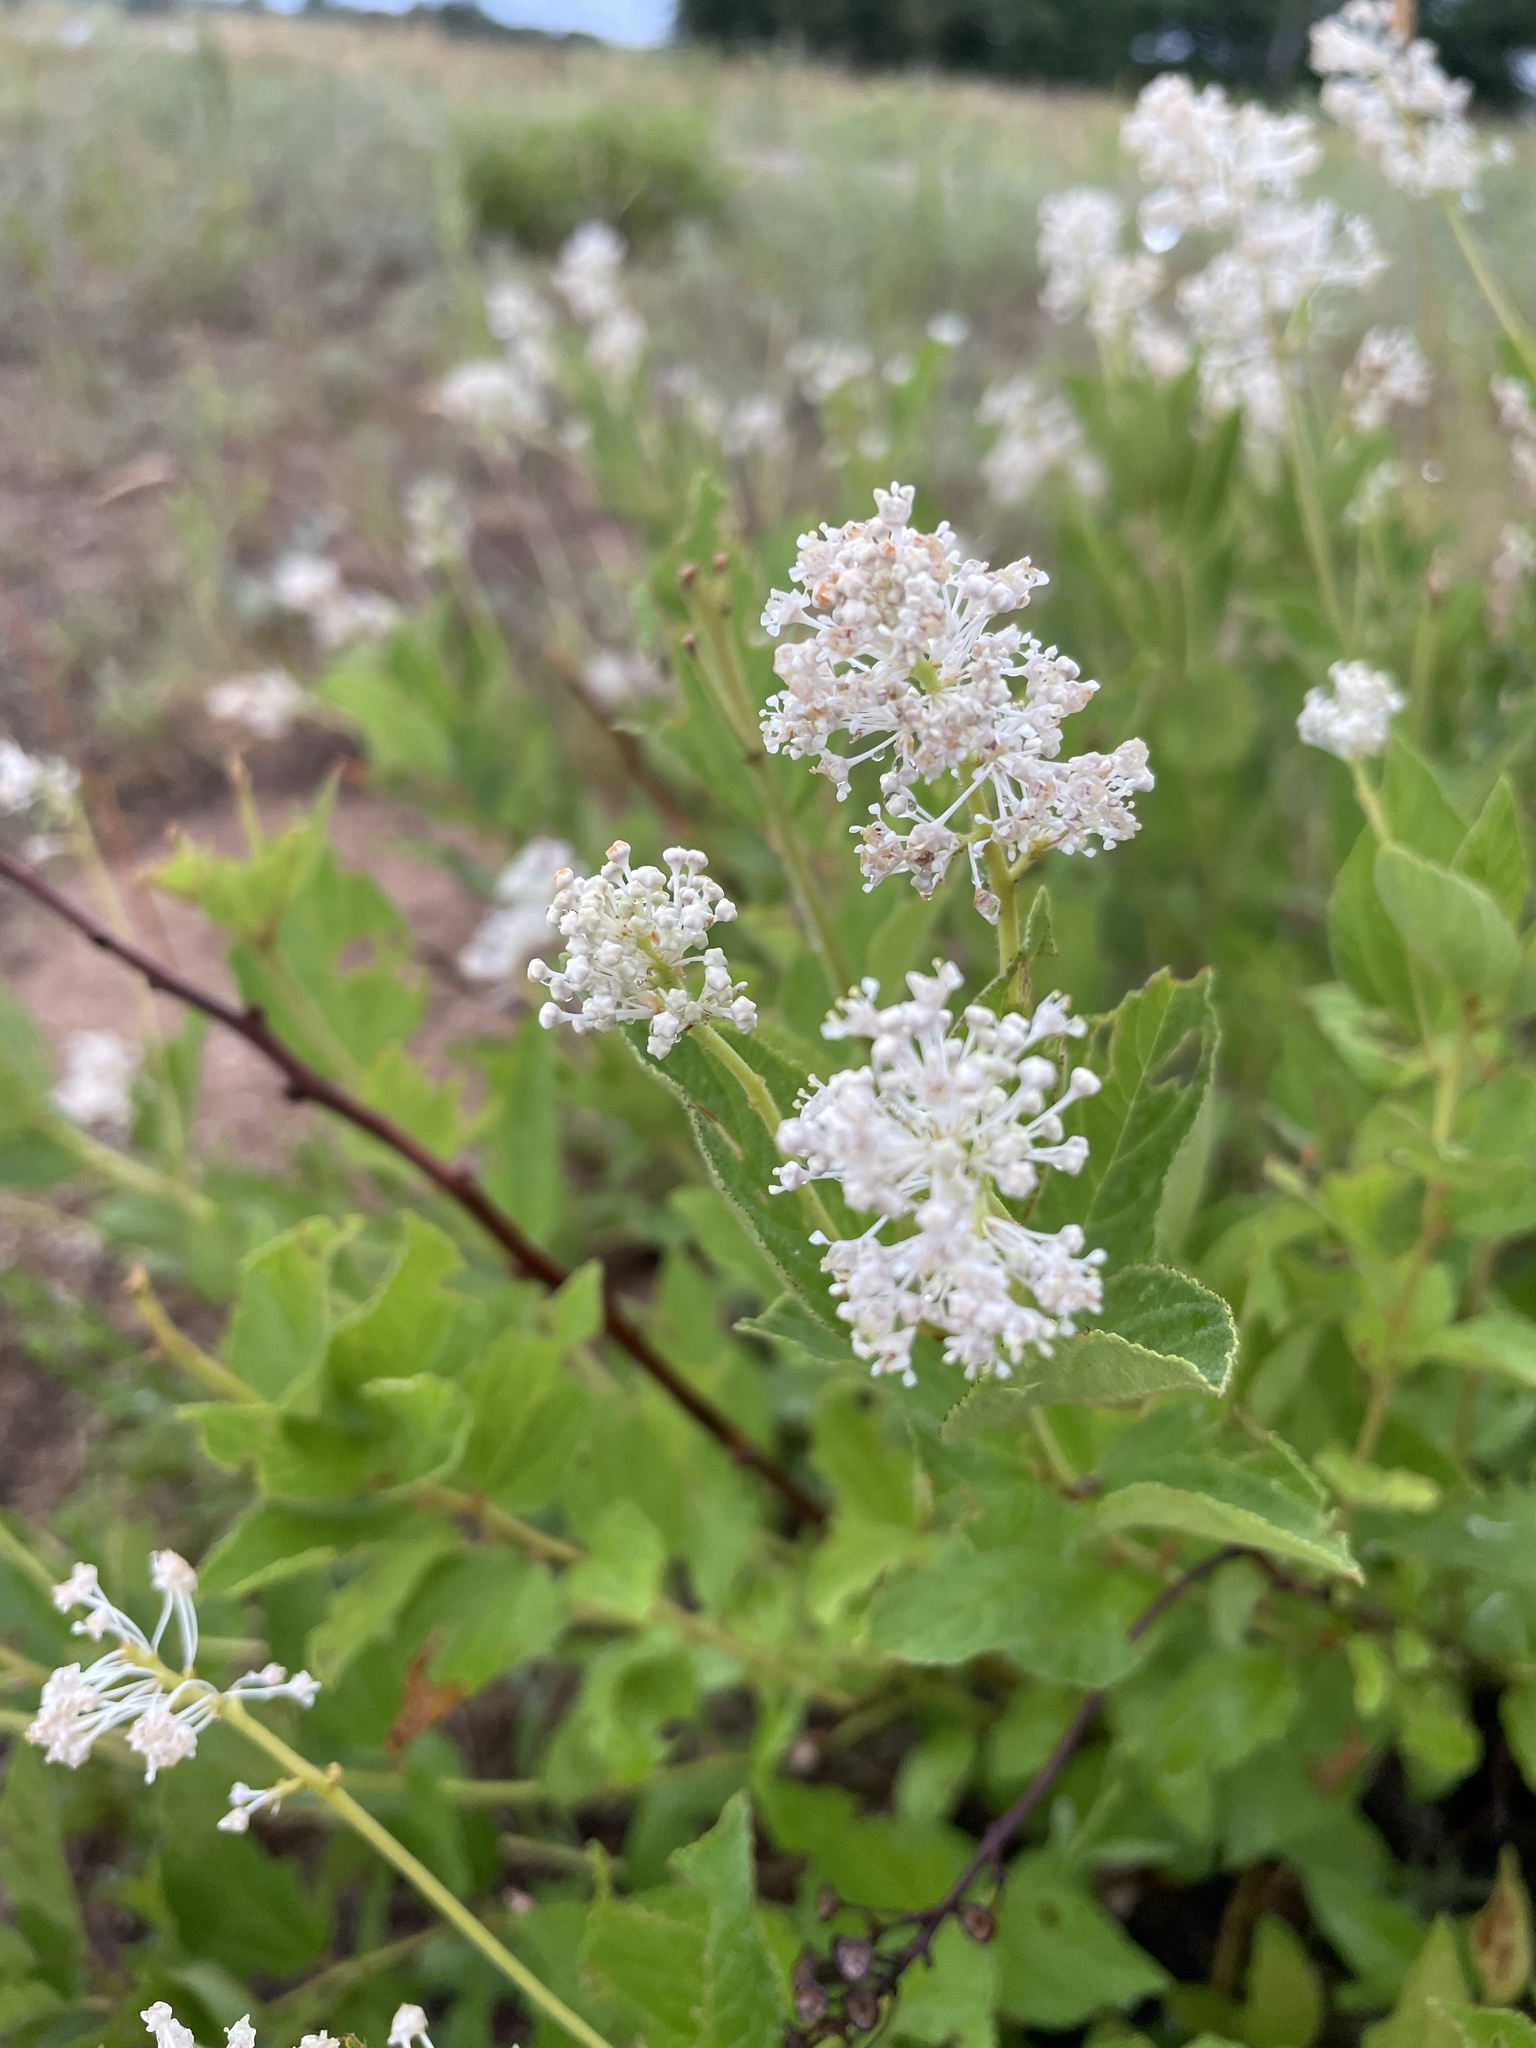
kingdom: Plantae
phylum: Tracheophyta
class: Magnoliopsida
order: Rosales
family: Rhamnaceae
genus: Ceanothus
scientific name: Ceanothus americanus
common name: Redroot
